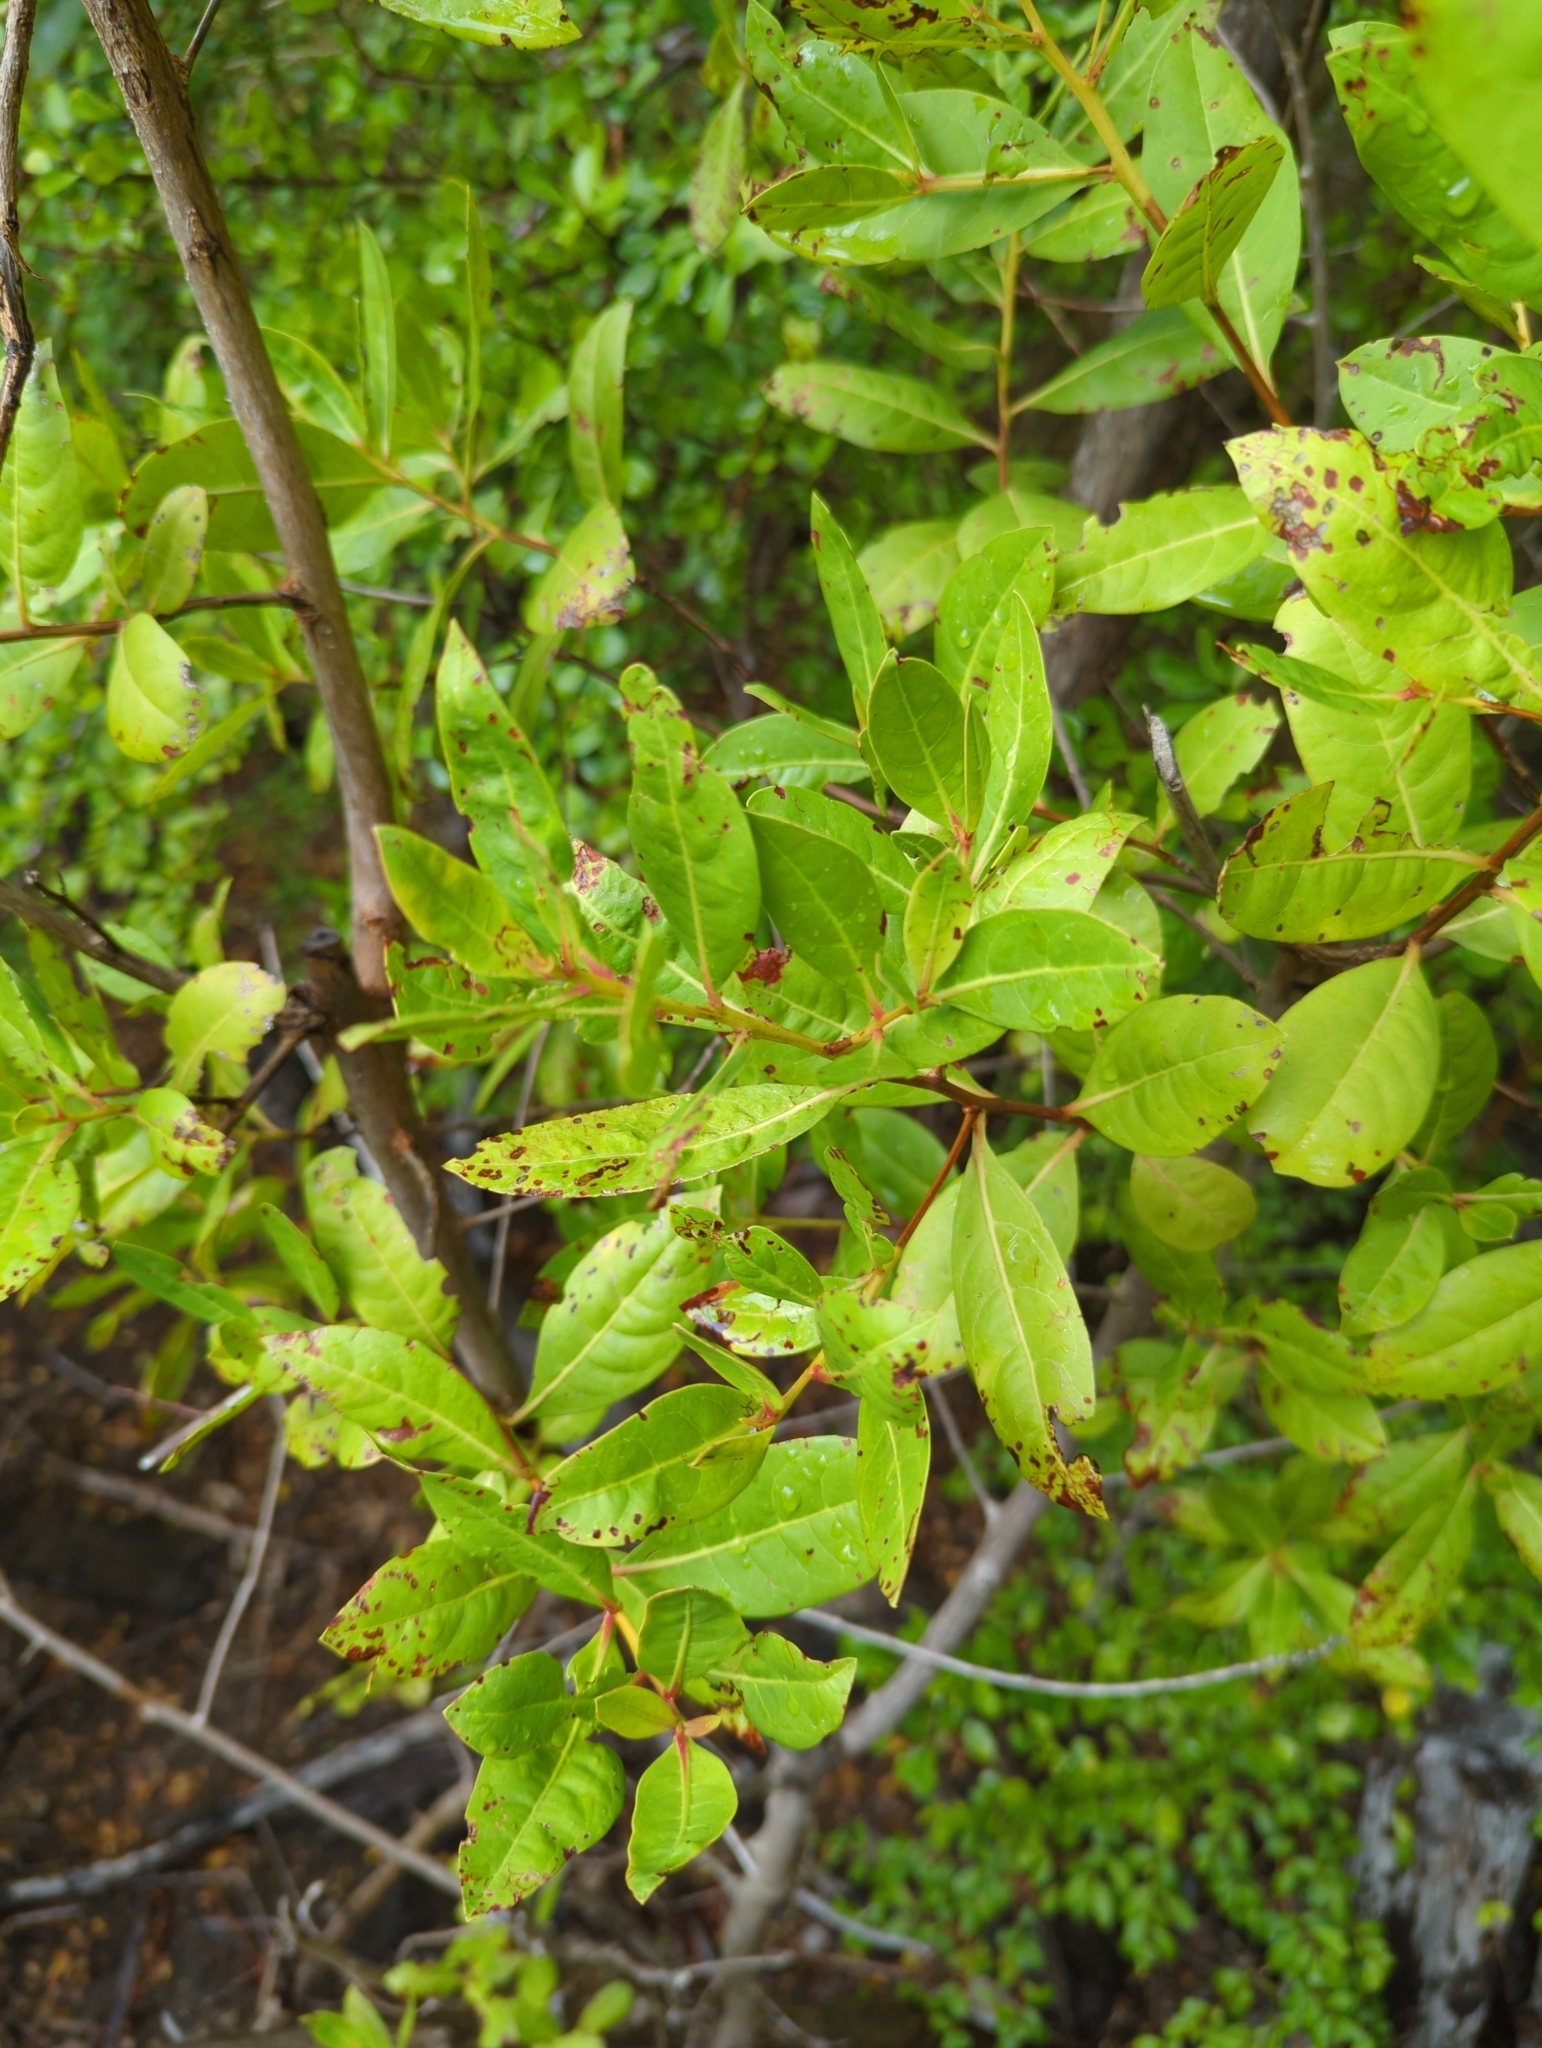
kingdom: Plantae
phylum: Tracheophyta
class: Magnoliopsida
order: Myrtales
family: Combretaceae
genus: Conocarpus
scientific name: Conocarpus erectus
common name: Button mangrove
